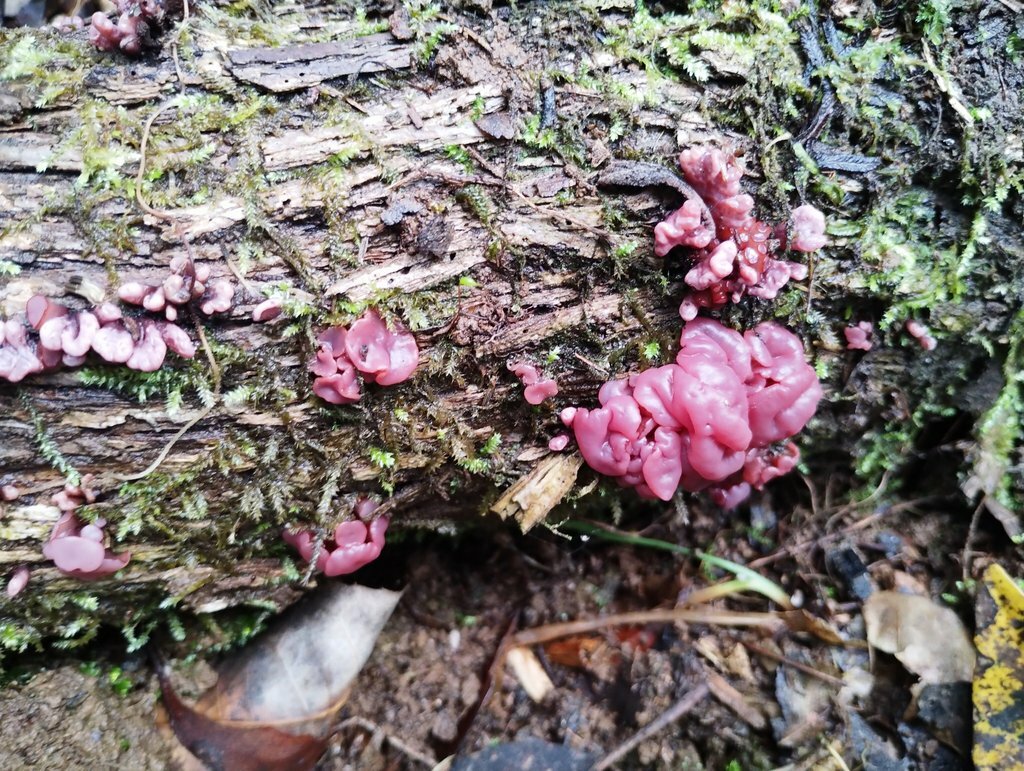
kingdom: Fungi
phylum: Ascomycota
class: Leotiomycetes
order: Helotiales
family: Gelatinodiscaceae
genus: Ascocoryne
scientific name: Ascocoryne sarcoides
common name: Purple jellydisc
